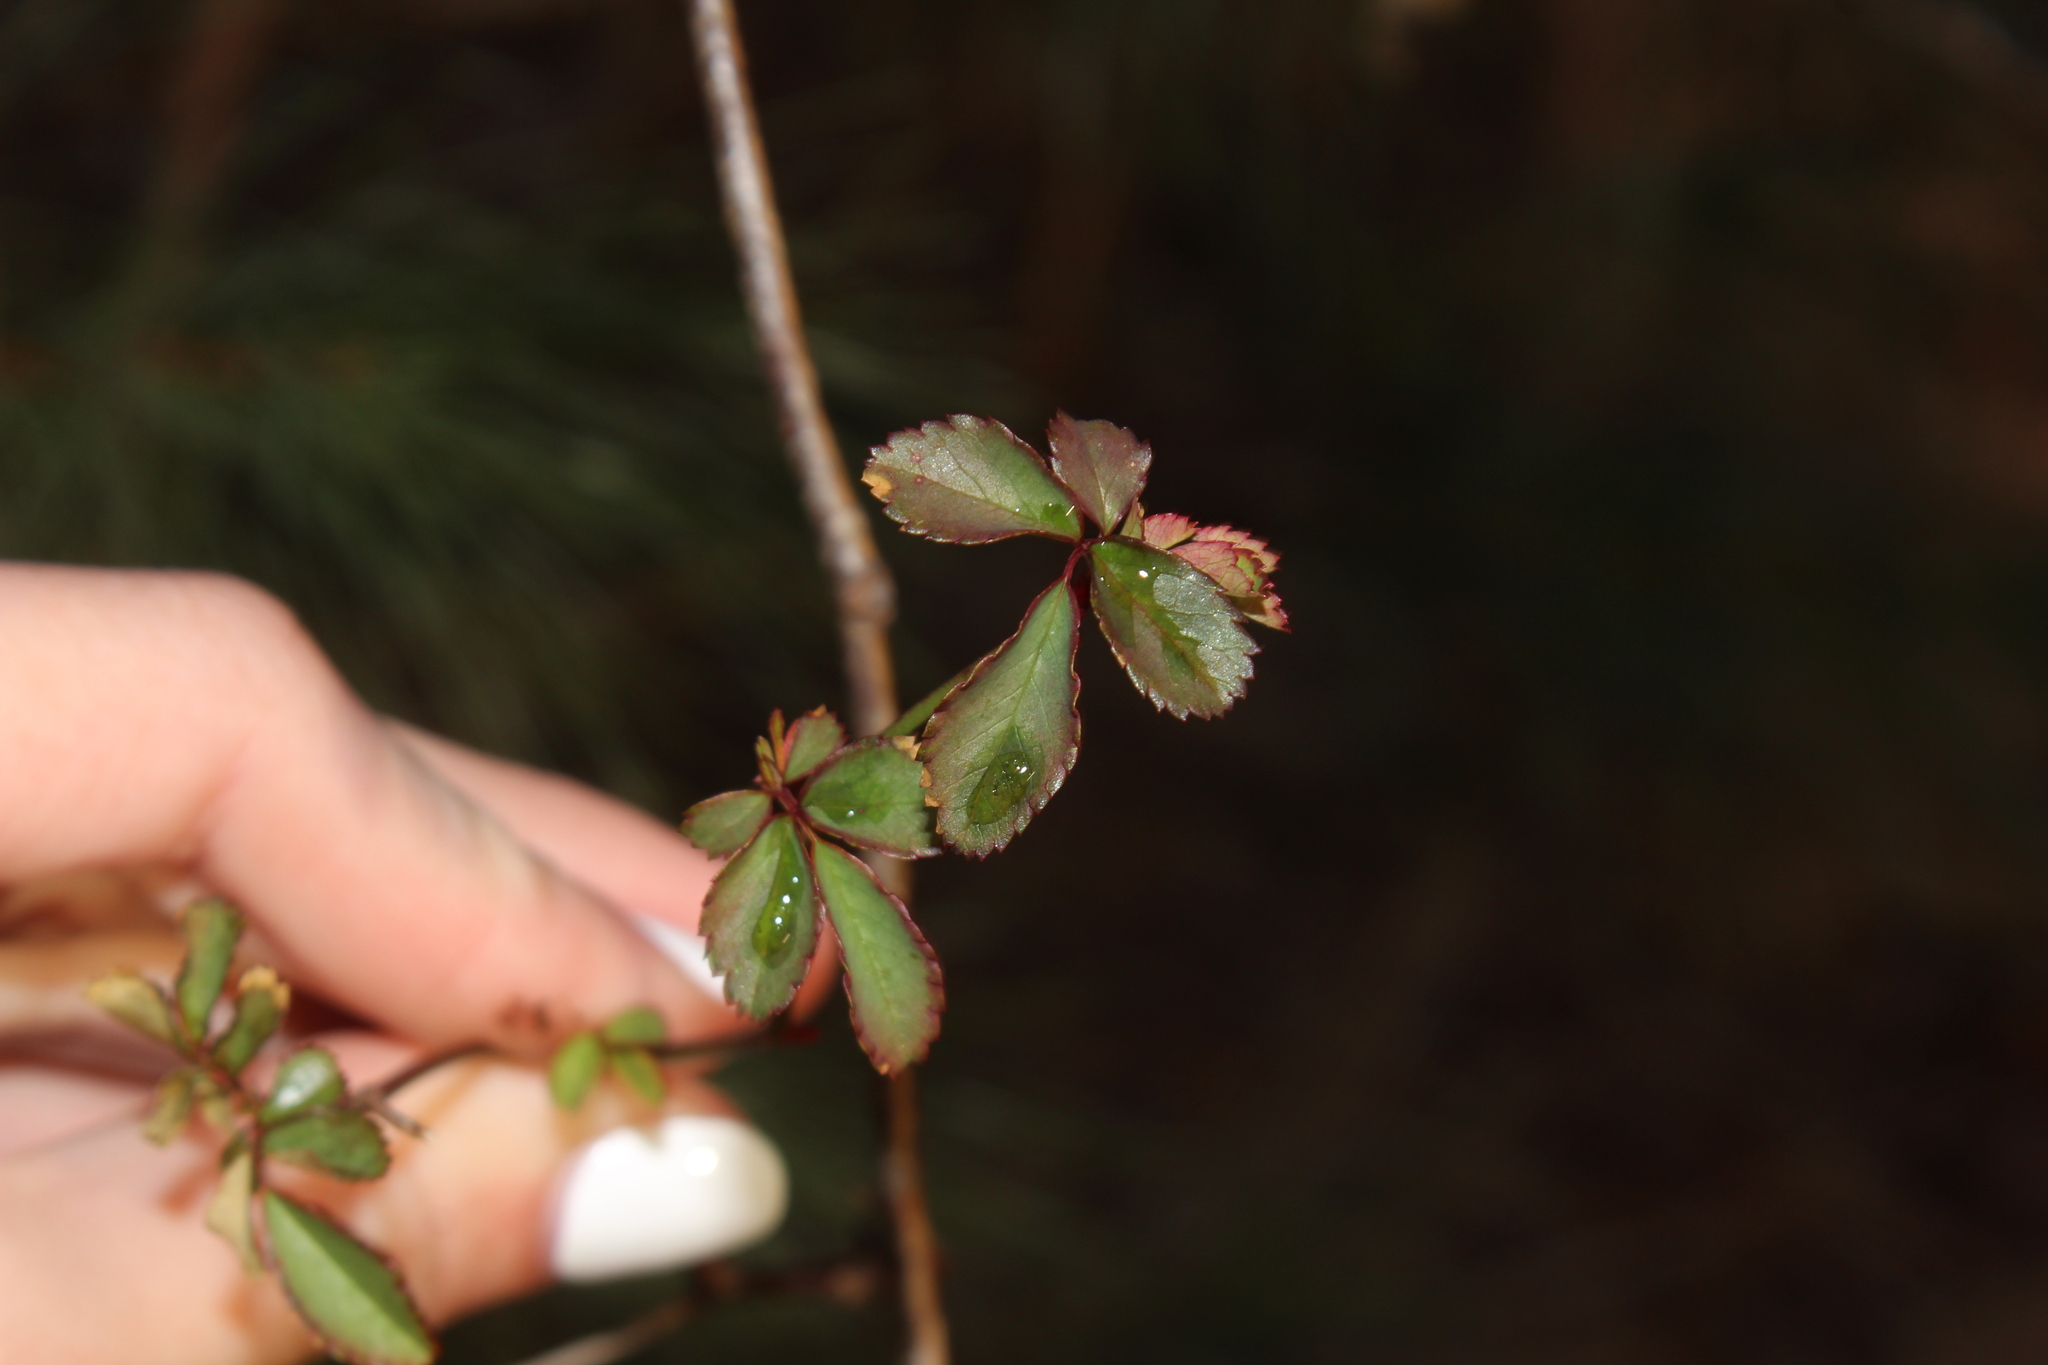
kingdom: Plantae
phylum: Tracheophyta
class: Magnoliopsida
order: Rosales
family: Rosaceae
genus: Rosa
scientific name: Rosa multiflora
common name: Multiflora rose
